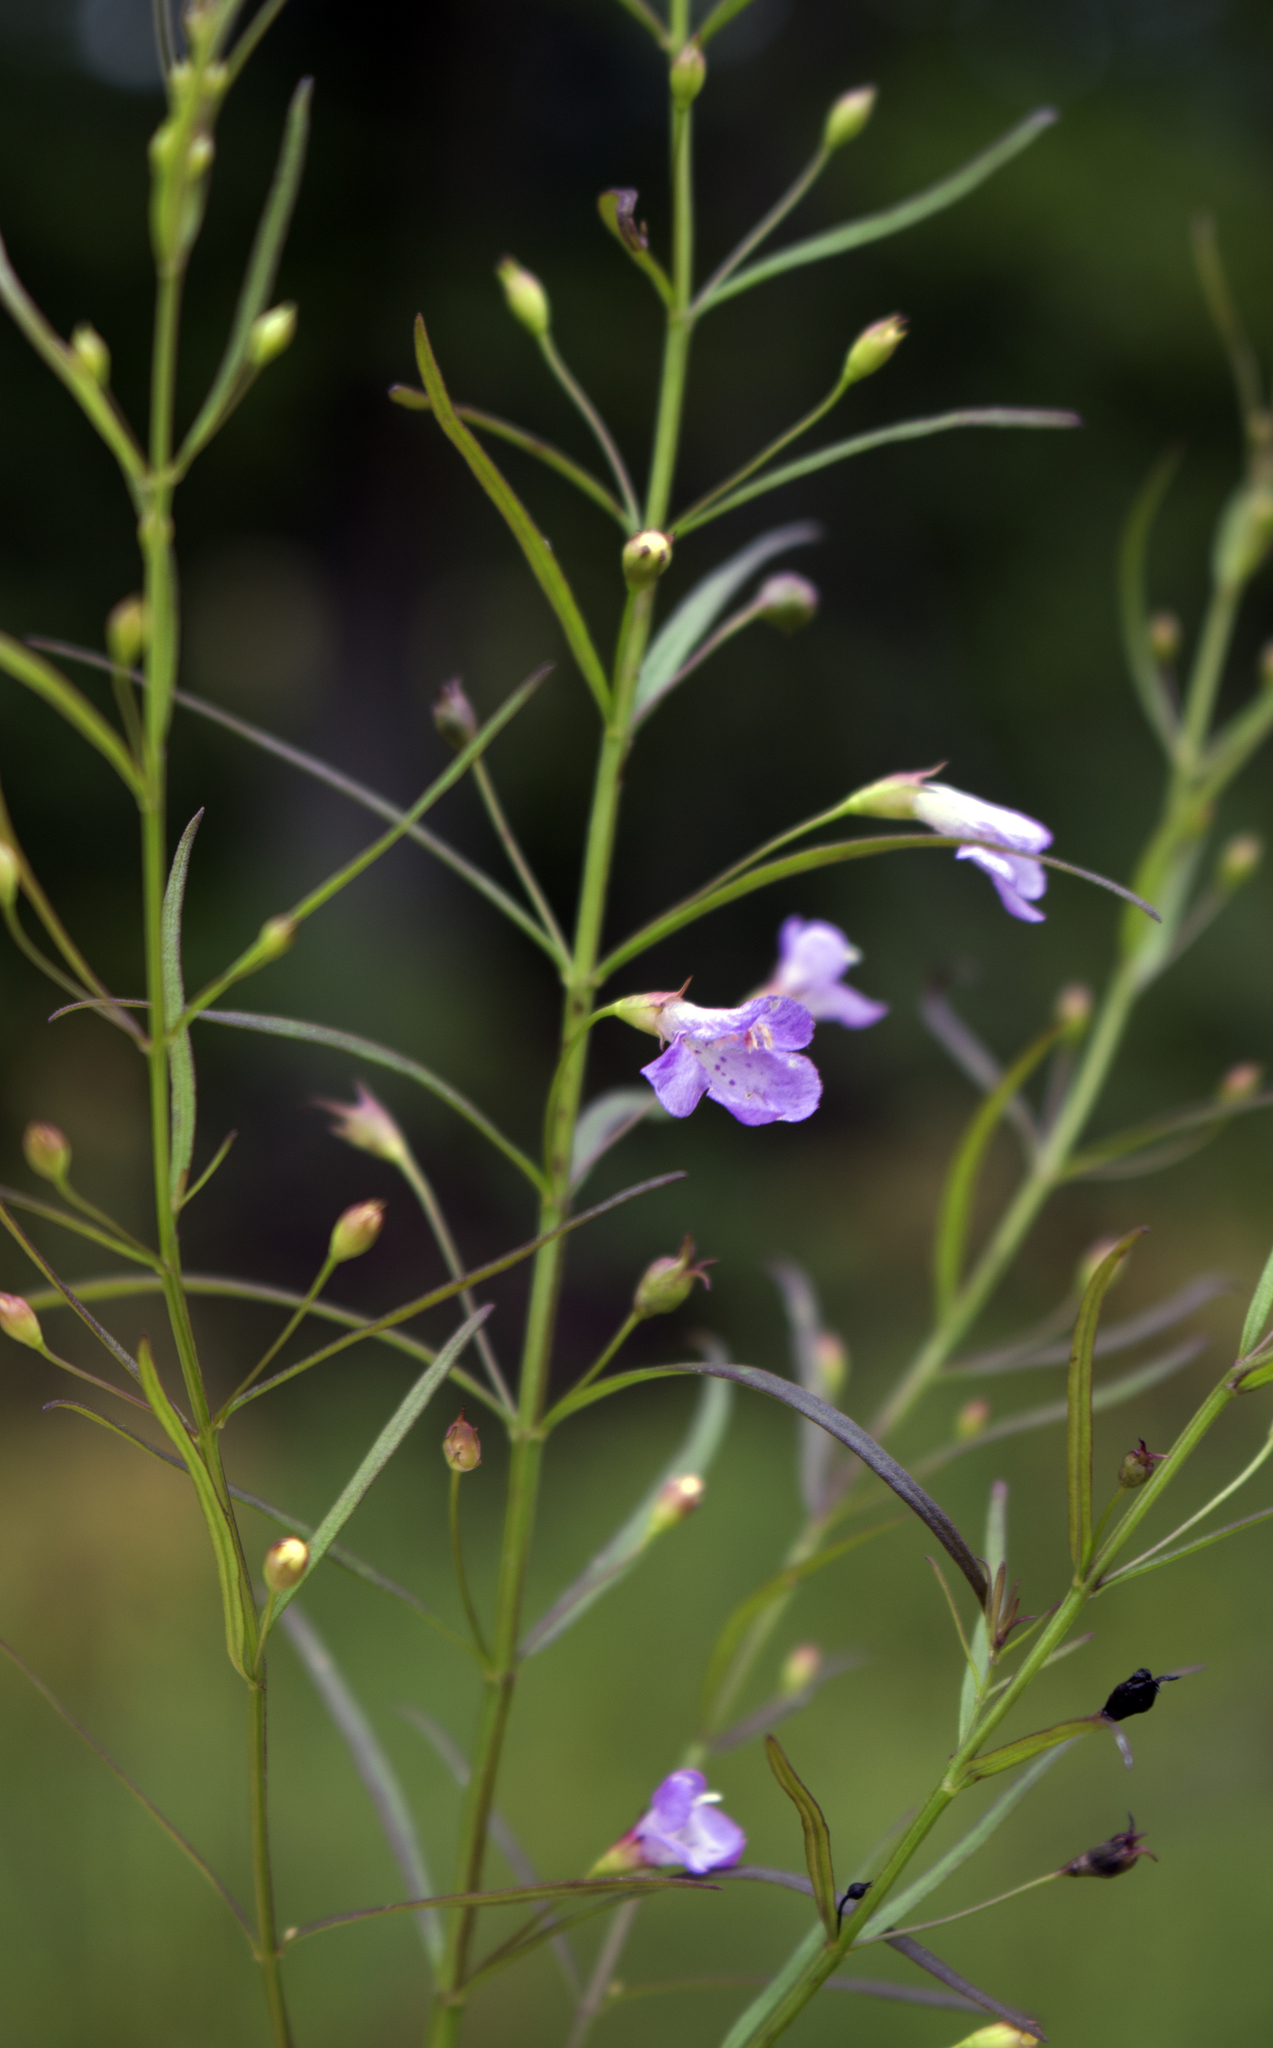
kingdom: Plantae
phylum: Tracheophyta
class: Magnoliopsida
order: Lamiales
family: Orobanchaceae
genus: Agalinis
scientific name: Agalinis tenuifolia
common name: Slender agalinis
